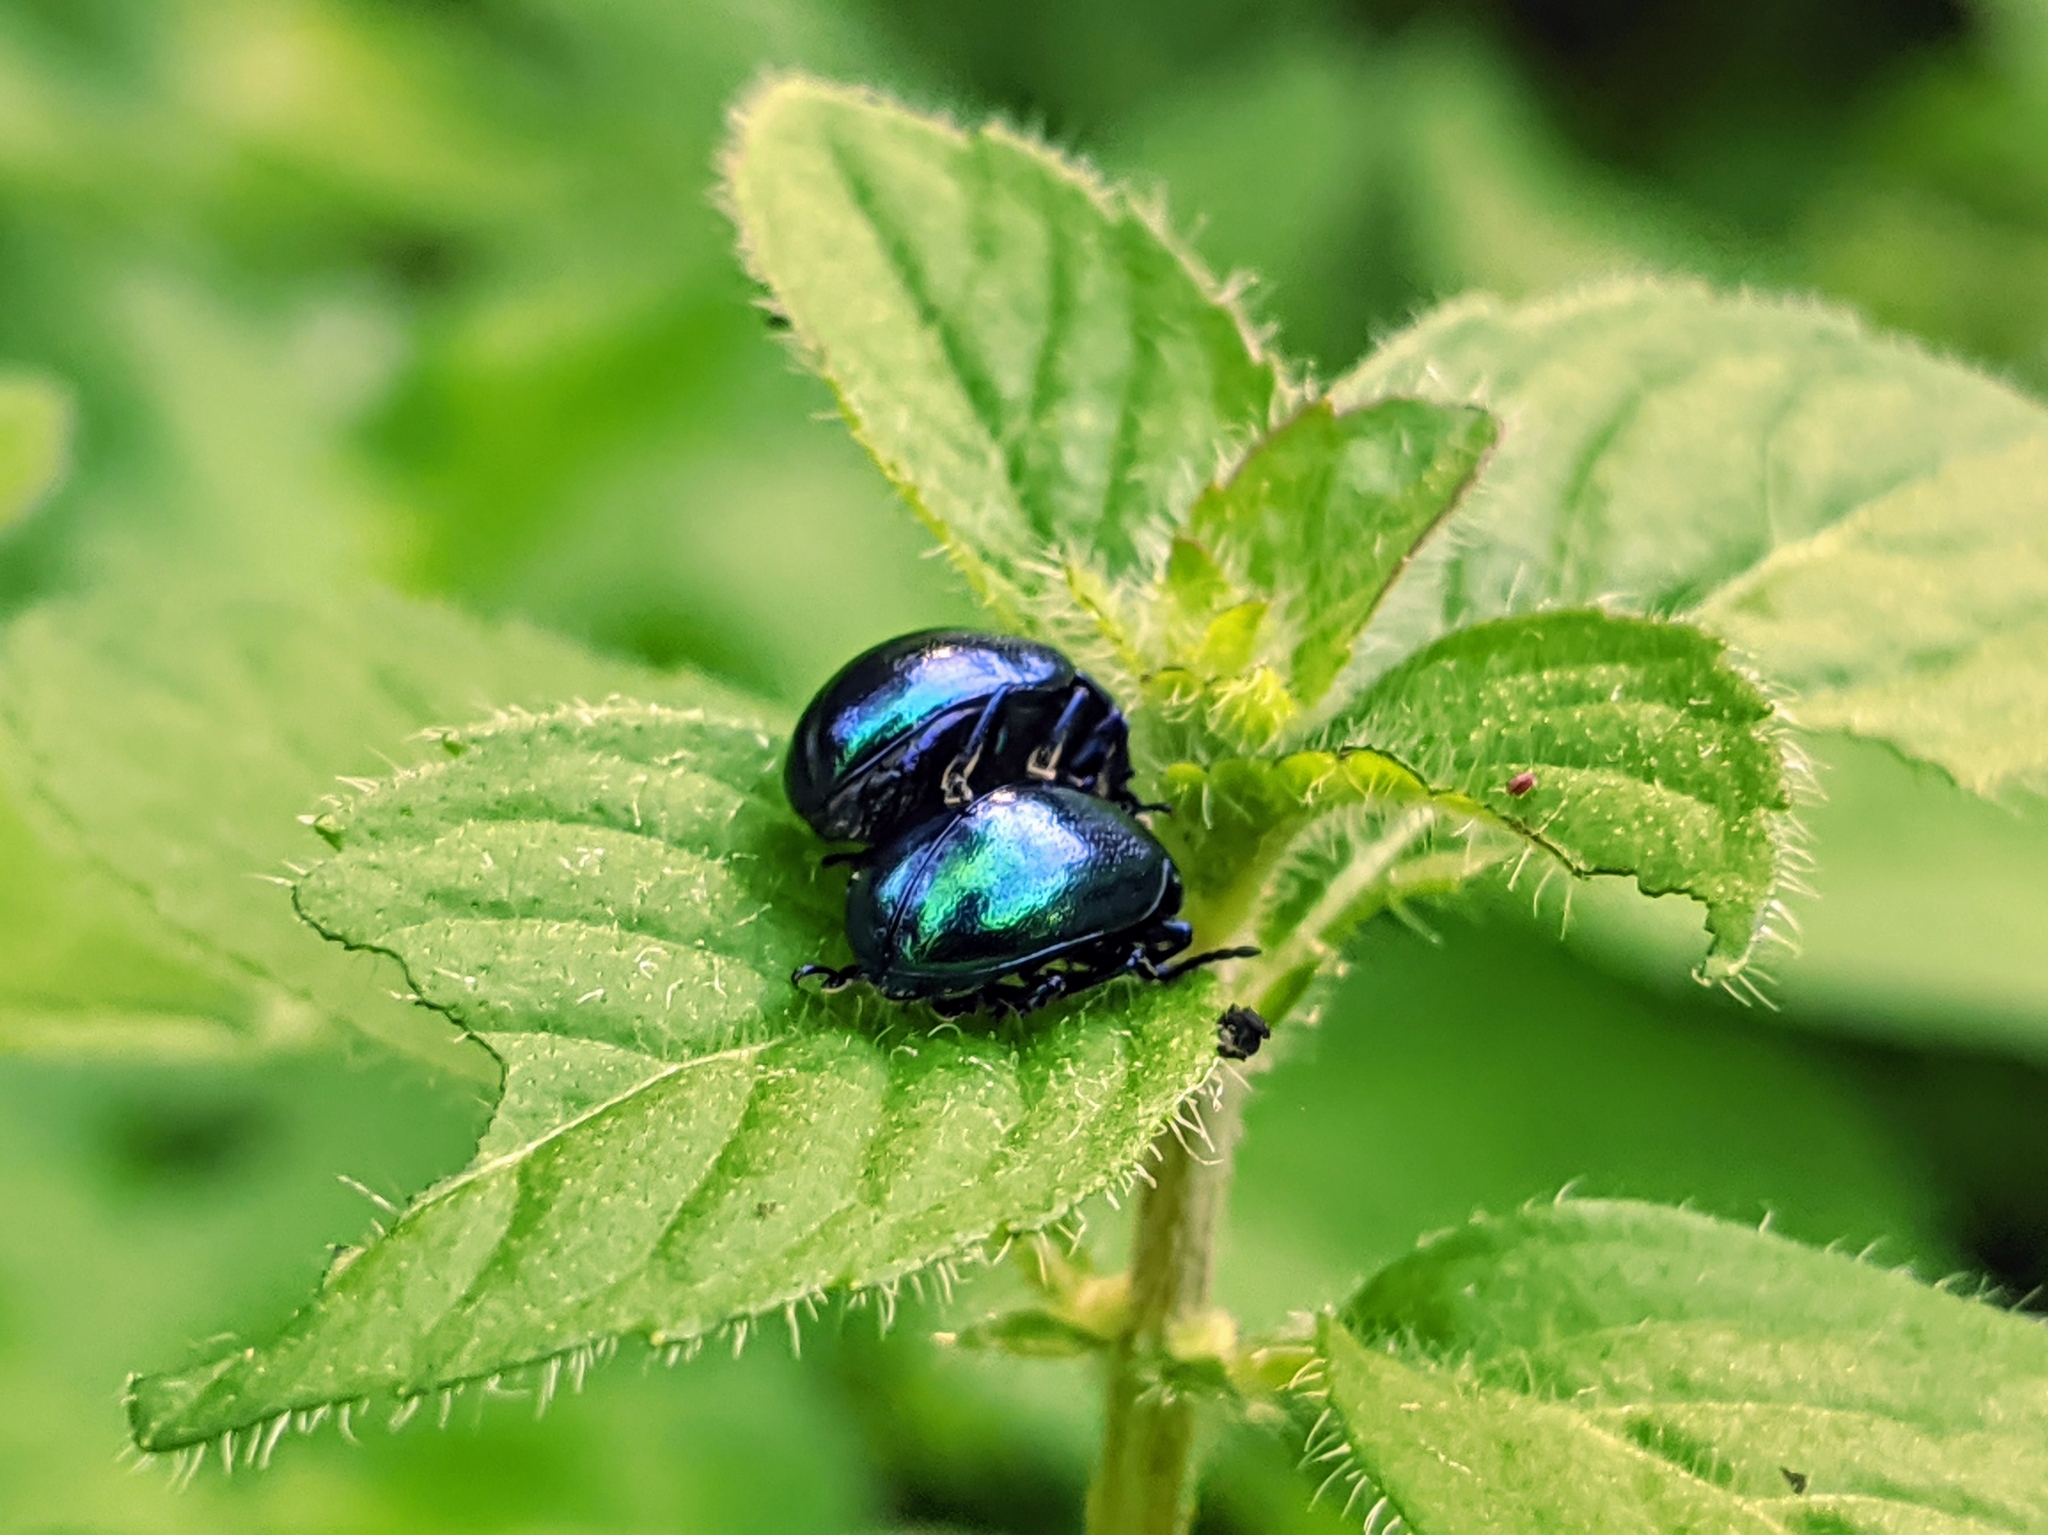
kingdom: Animalia
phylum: Arthropoda
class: Insecta
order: Coleoptera
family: Chrysomelidae
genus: Chrysolina
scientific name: Chrysolina coerulans
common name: Blue mint beetle
